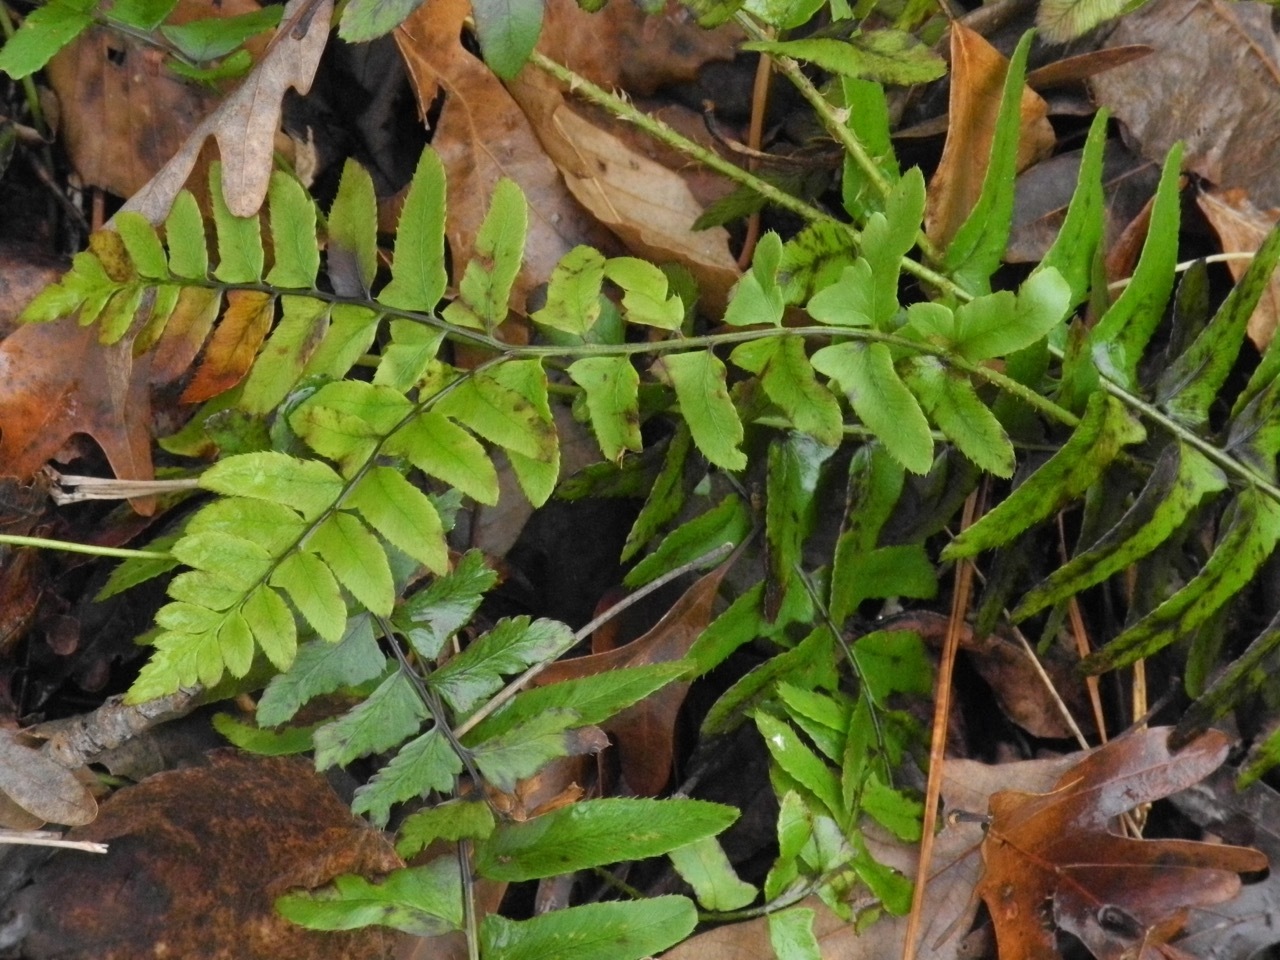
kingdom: Plantae
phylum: Tracheophyta
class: Polypodiopsida
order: Polypodiales
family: Dryopteridaceae
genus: Polystichum
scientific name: Polystichum acrostichoides
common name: Christmas fern
